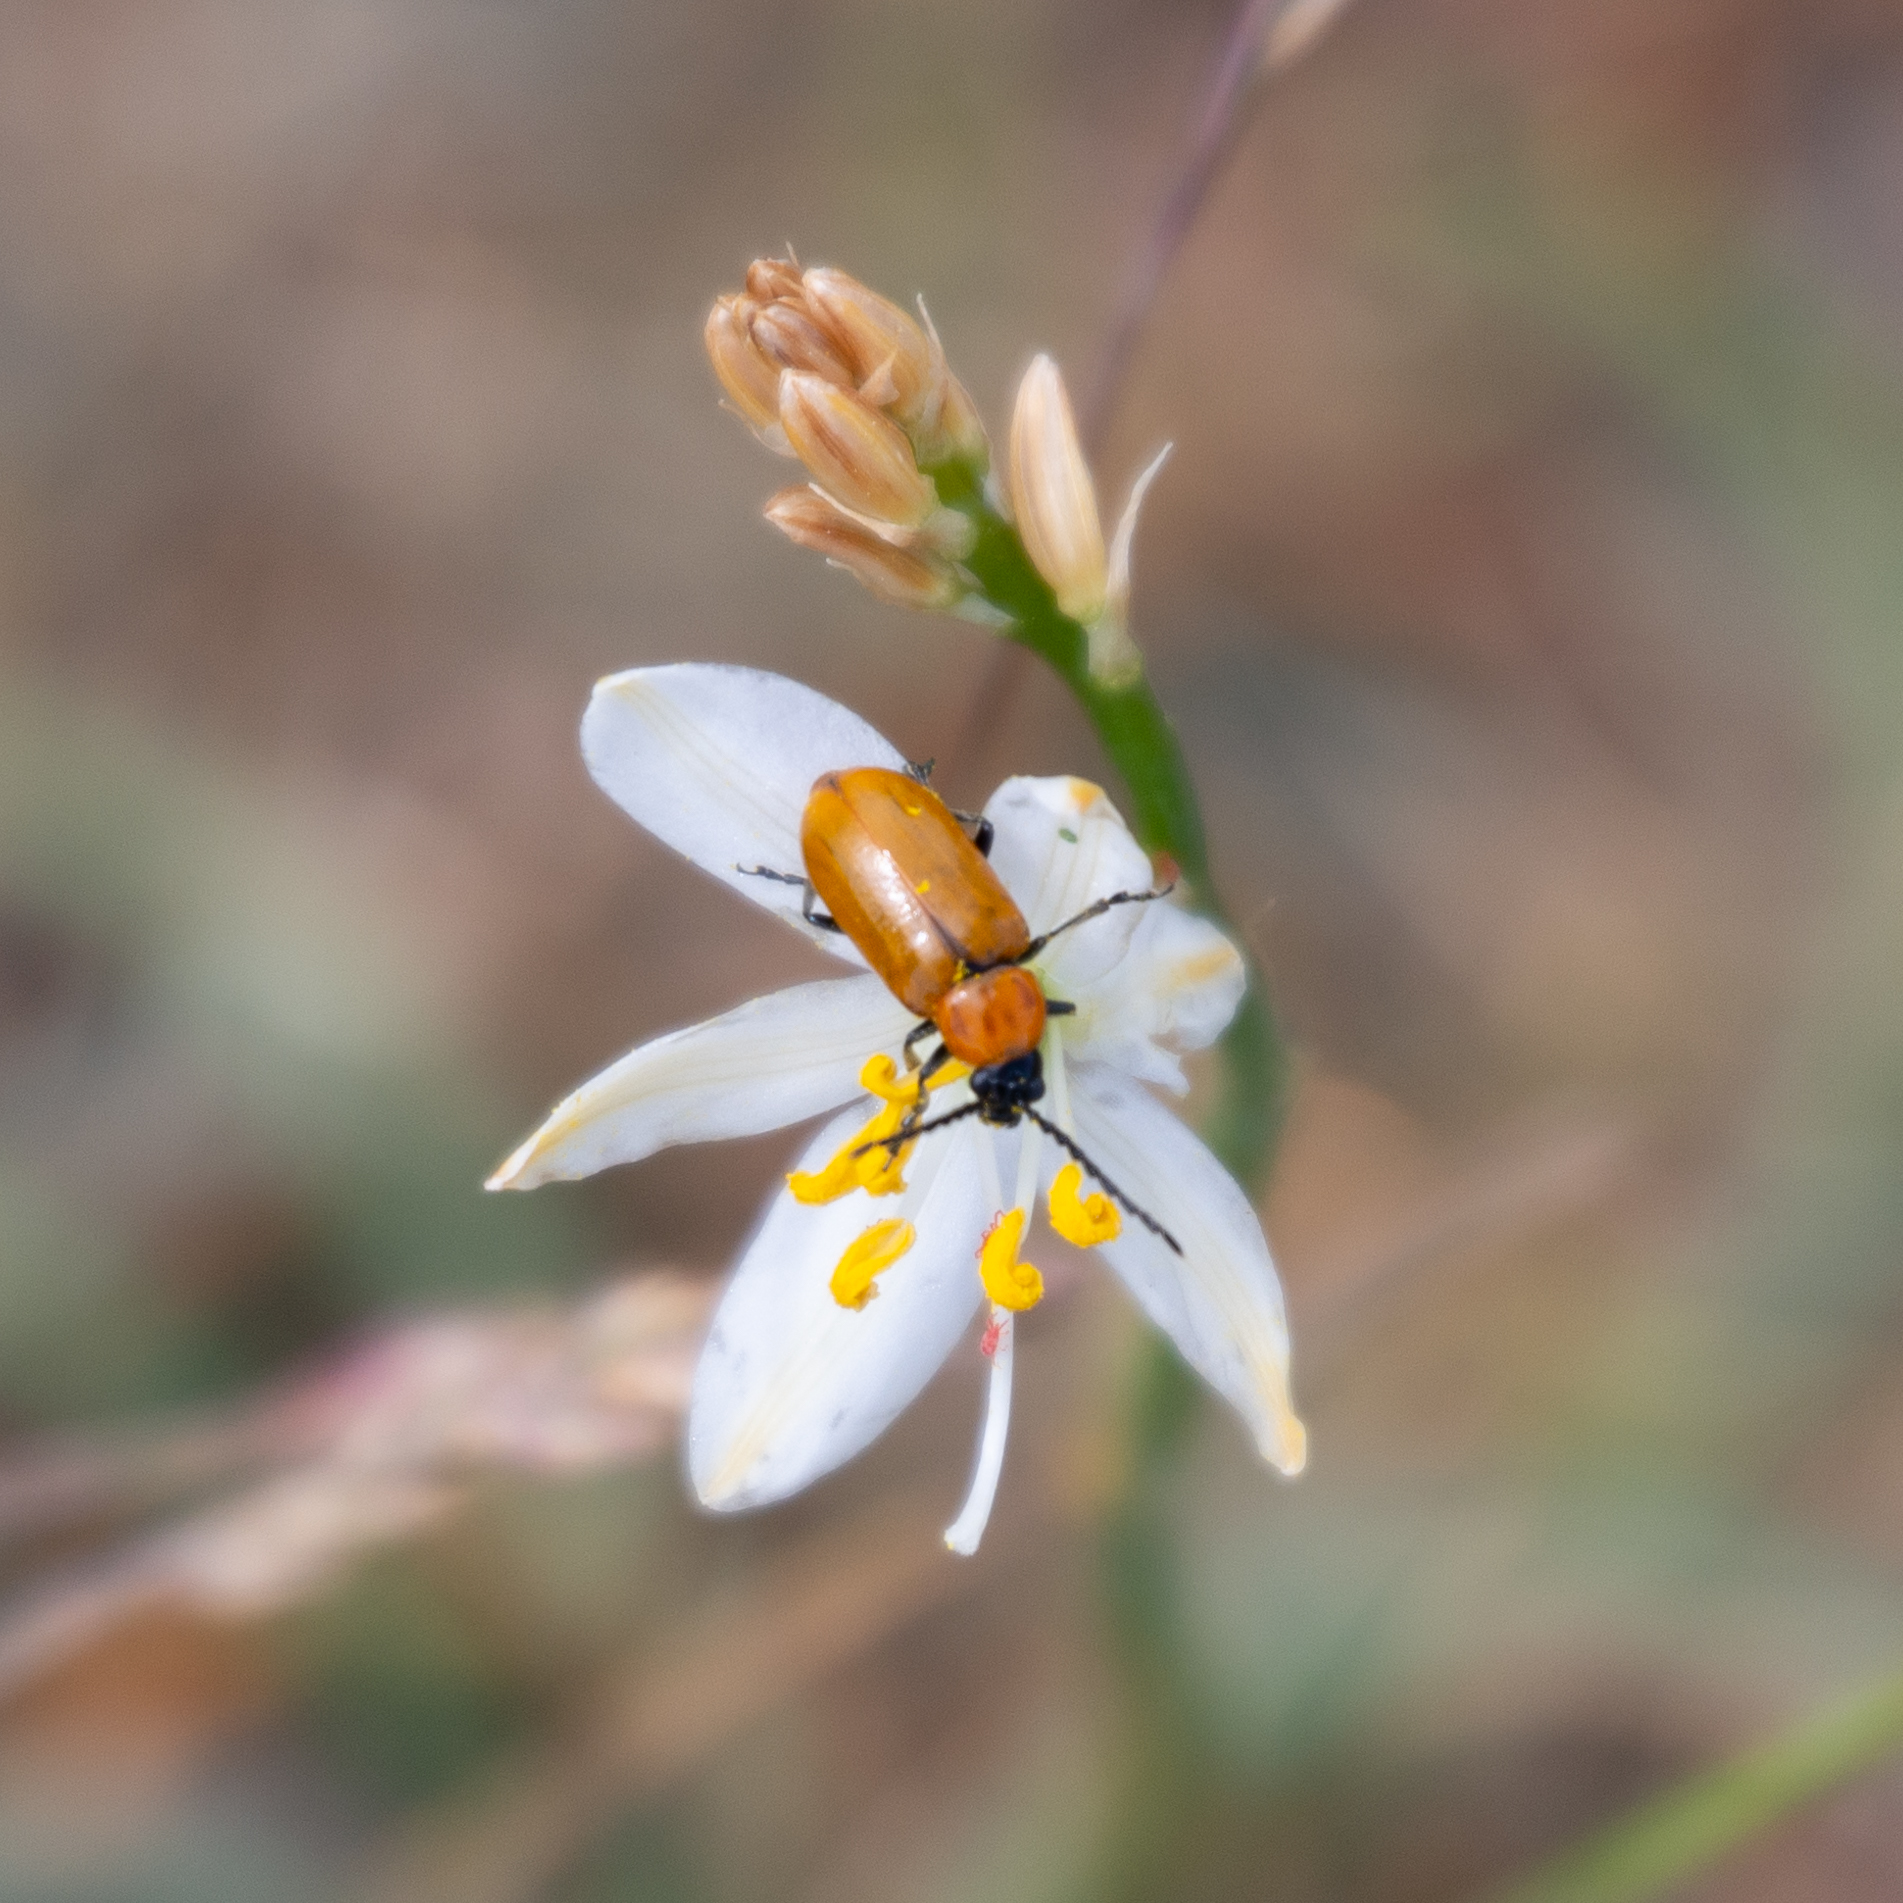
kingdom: Animalia
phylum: Arthropoda
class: Insecta
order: Coleoptera
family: Chrysomelidae
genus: Exosoma
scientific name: Exosoma lusitanicum
